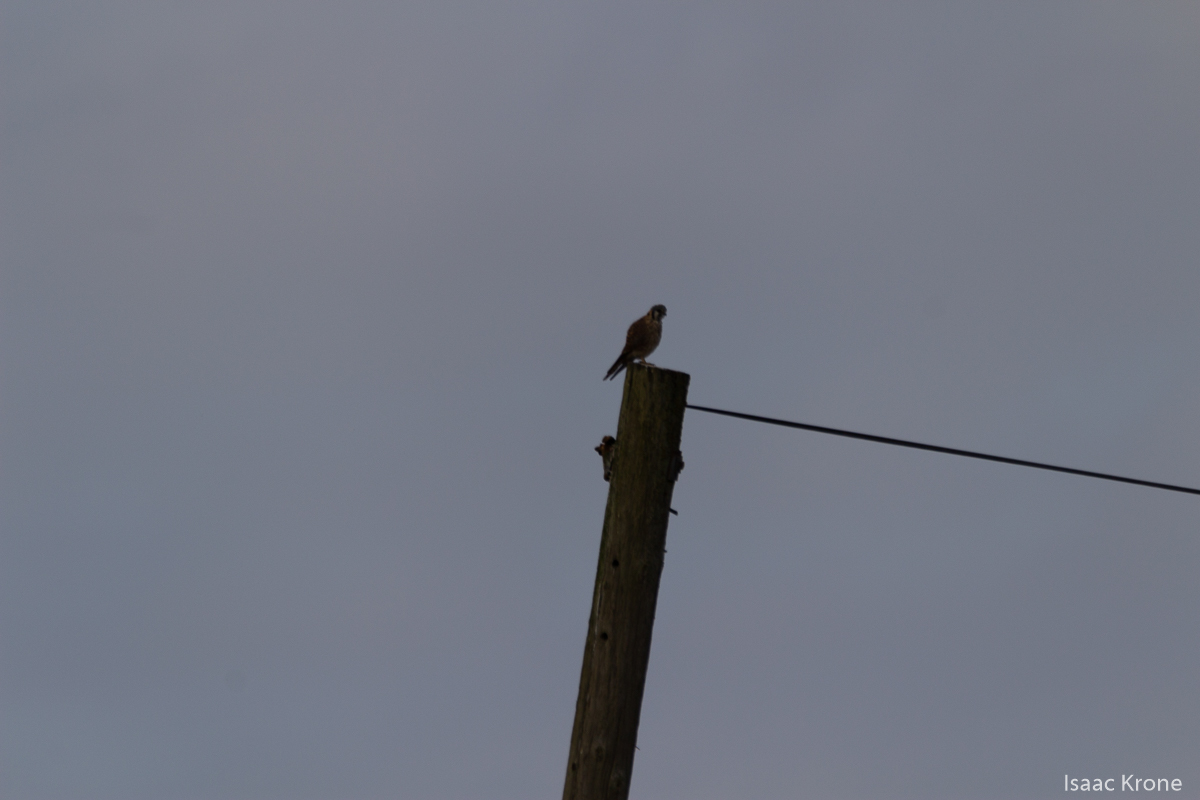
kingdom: Animalia
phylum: Chordata
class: Aves
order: Falconiformes
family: Falconidae
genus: Falco
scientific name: Falco sparverius
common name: American kestrel
